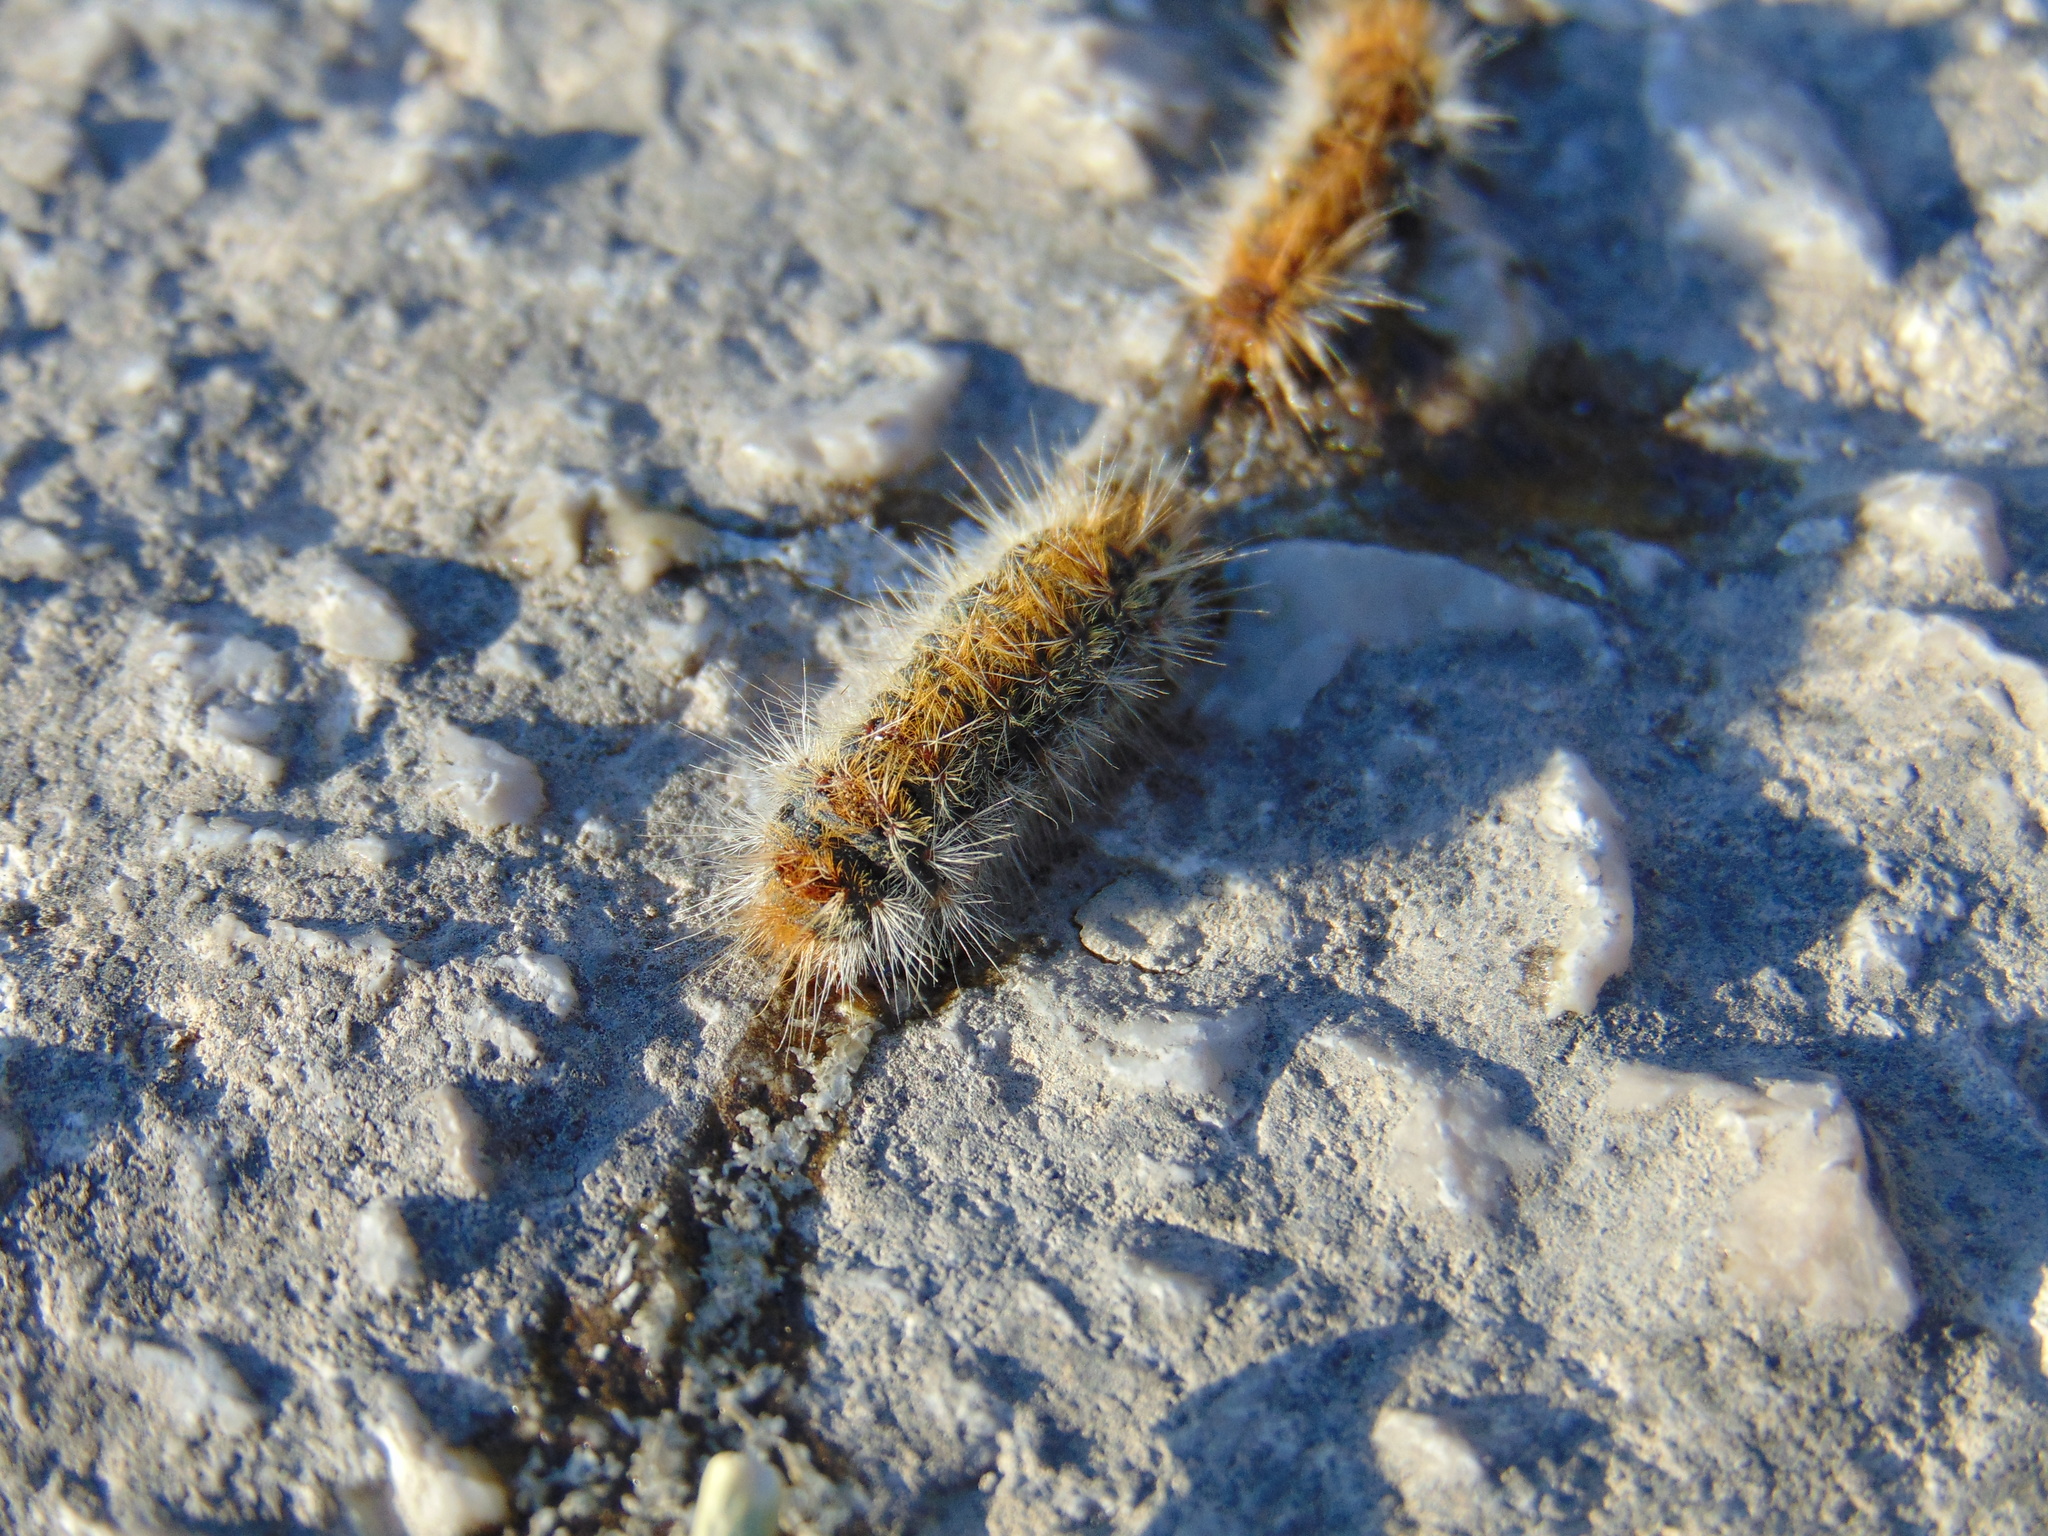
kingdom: Animalia
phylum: Arthropoda
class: Insecta
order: Lepidoptera
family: Notodontidae
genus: Thaumetopoea
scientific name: Thaumetopoea pityocampa
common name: Pine processionary
